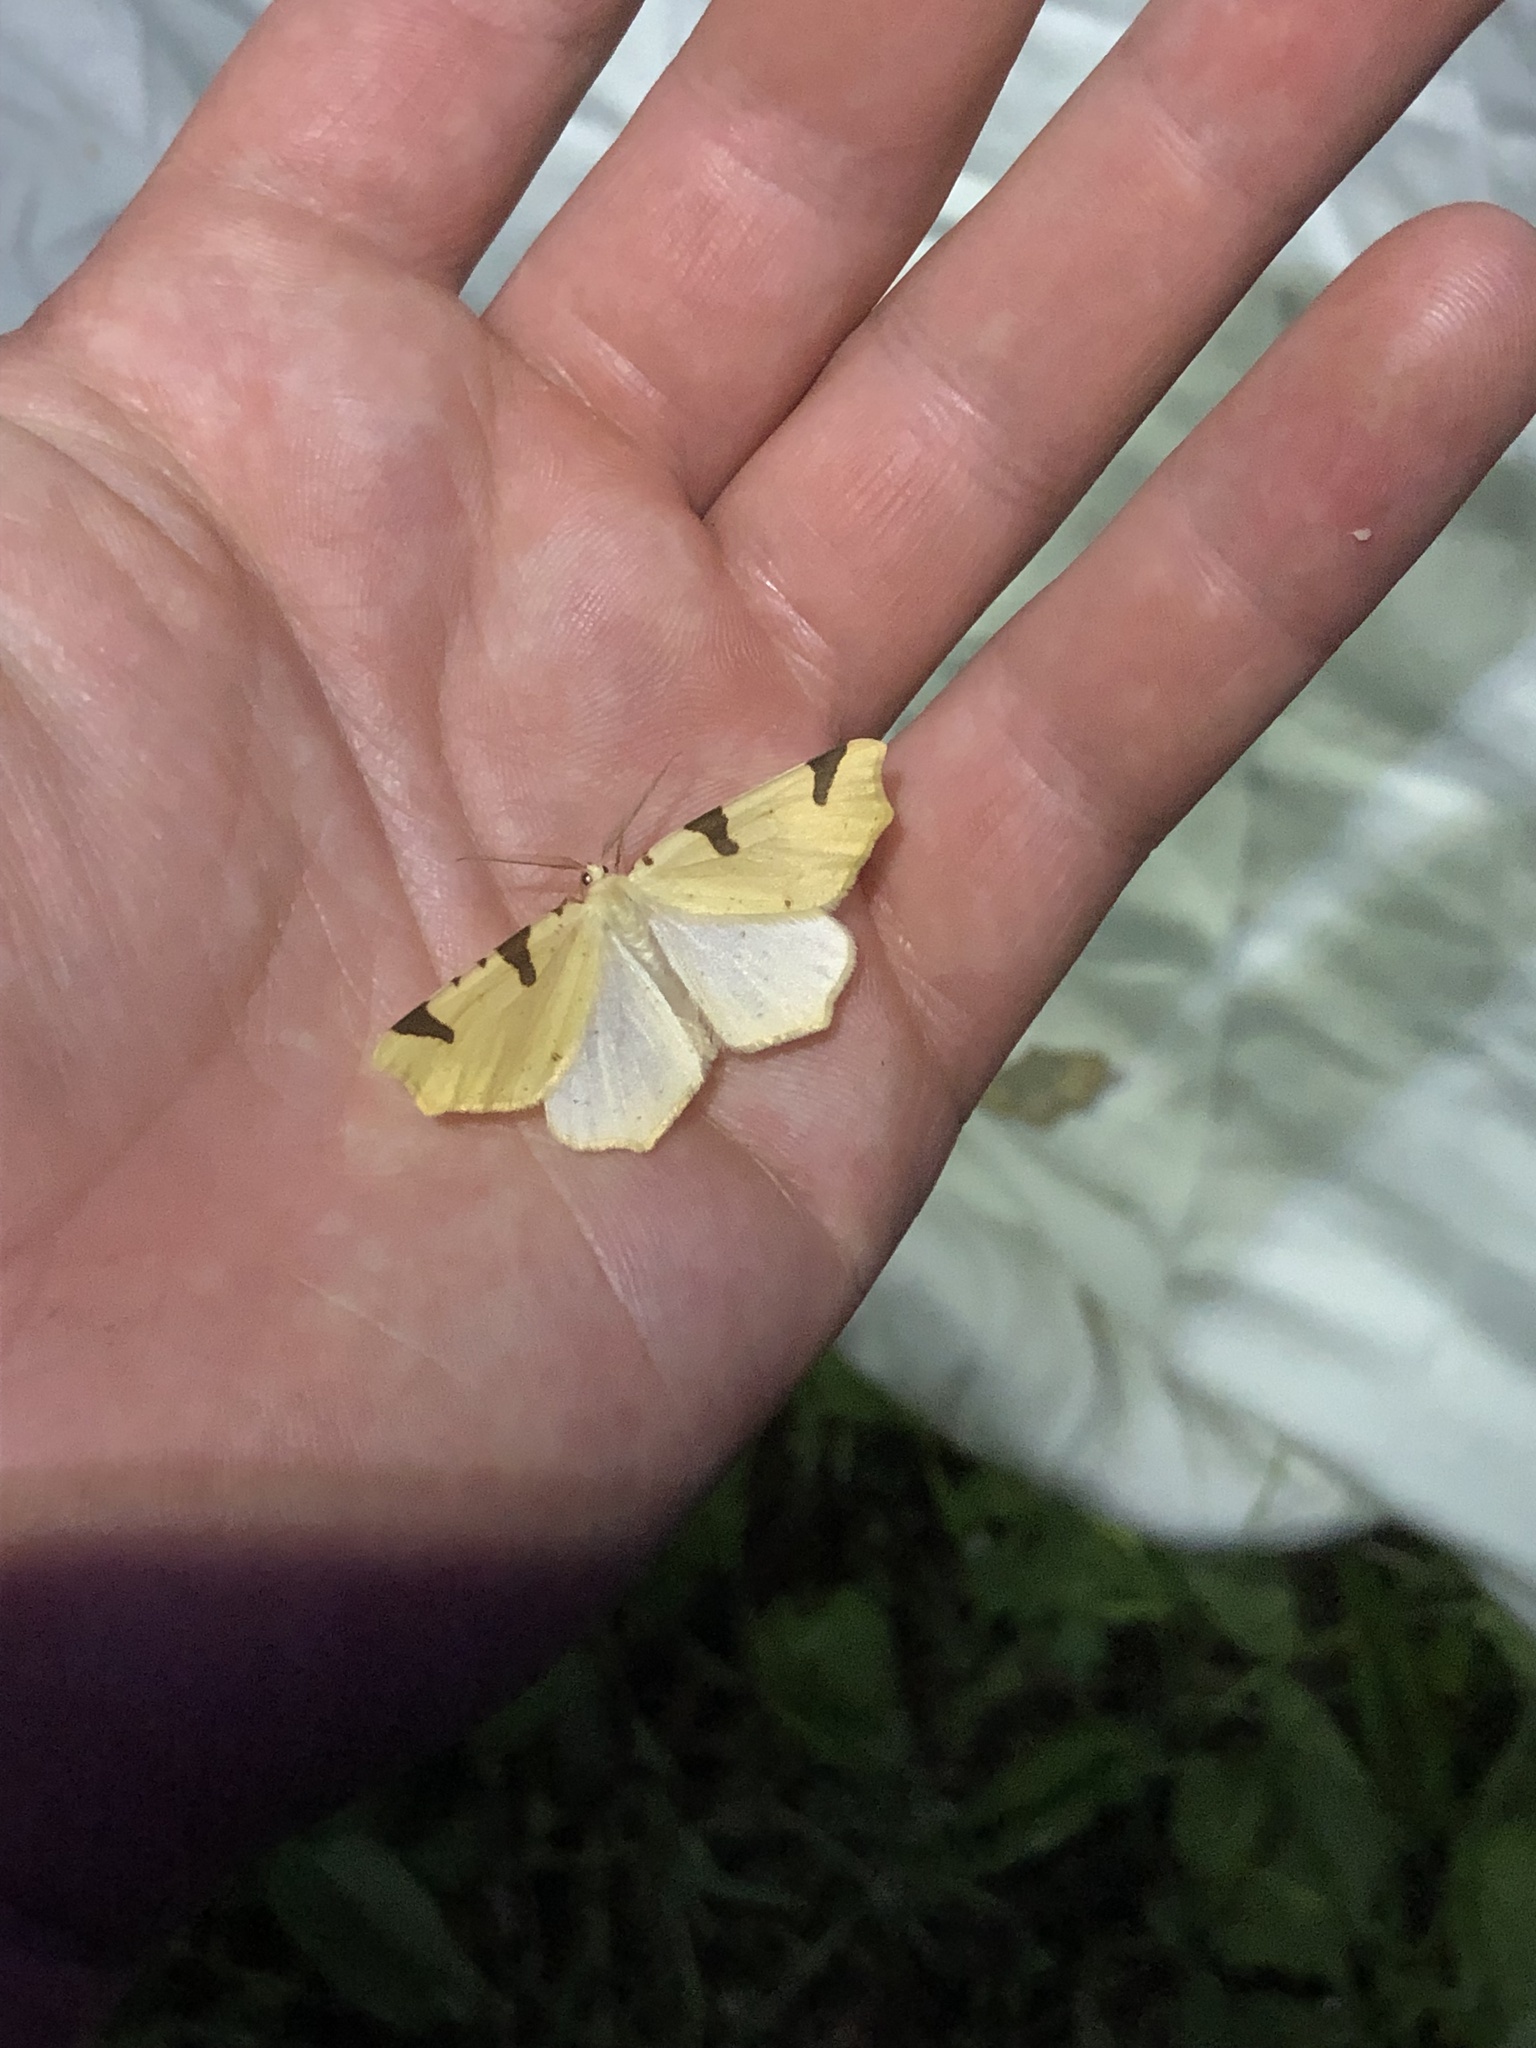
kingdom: Animalia
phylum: Arthropoda
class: Insecta
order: Lepidoptera
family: Geometridae
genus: Neoterpes
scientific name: Neoterpes trianguliferata
